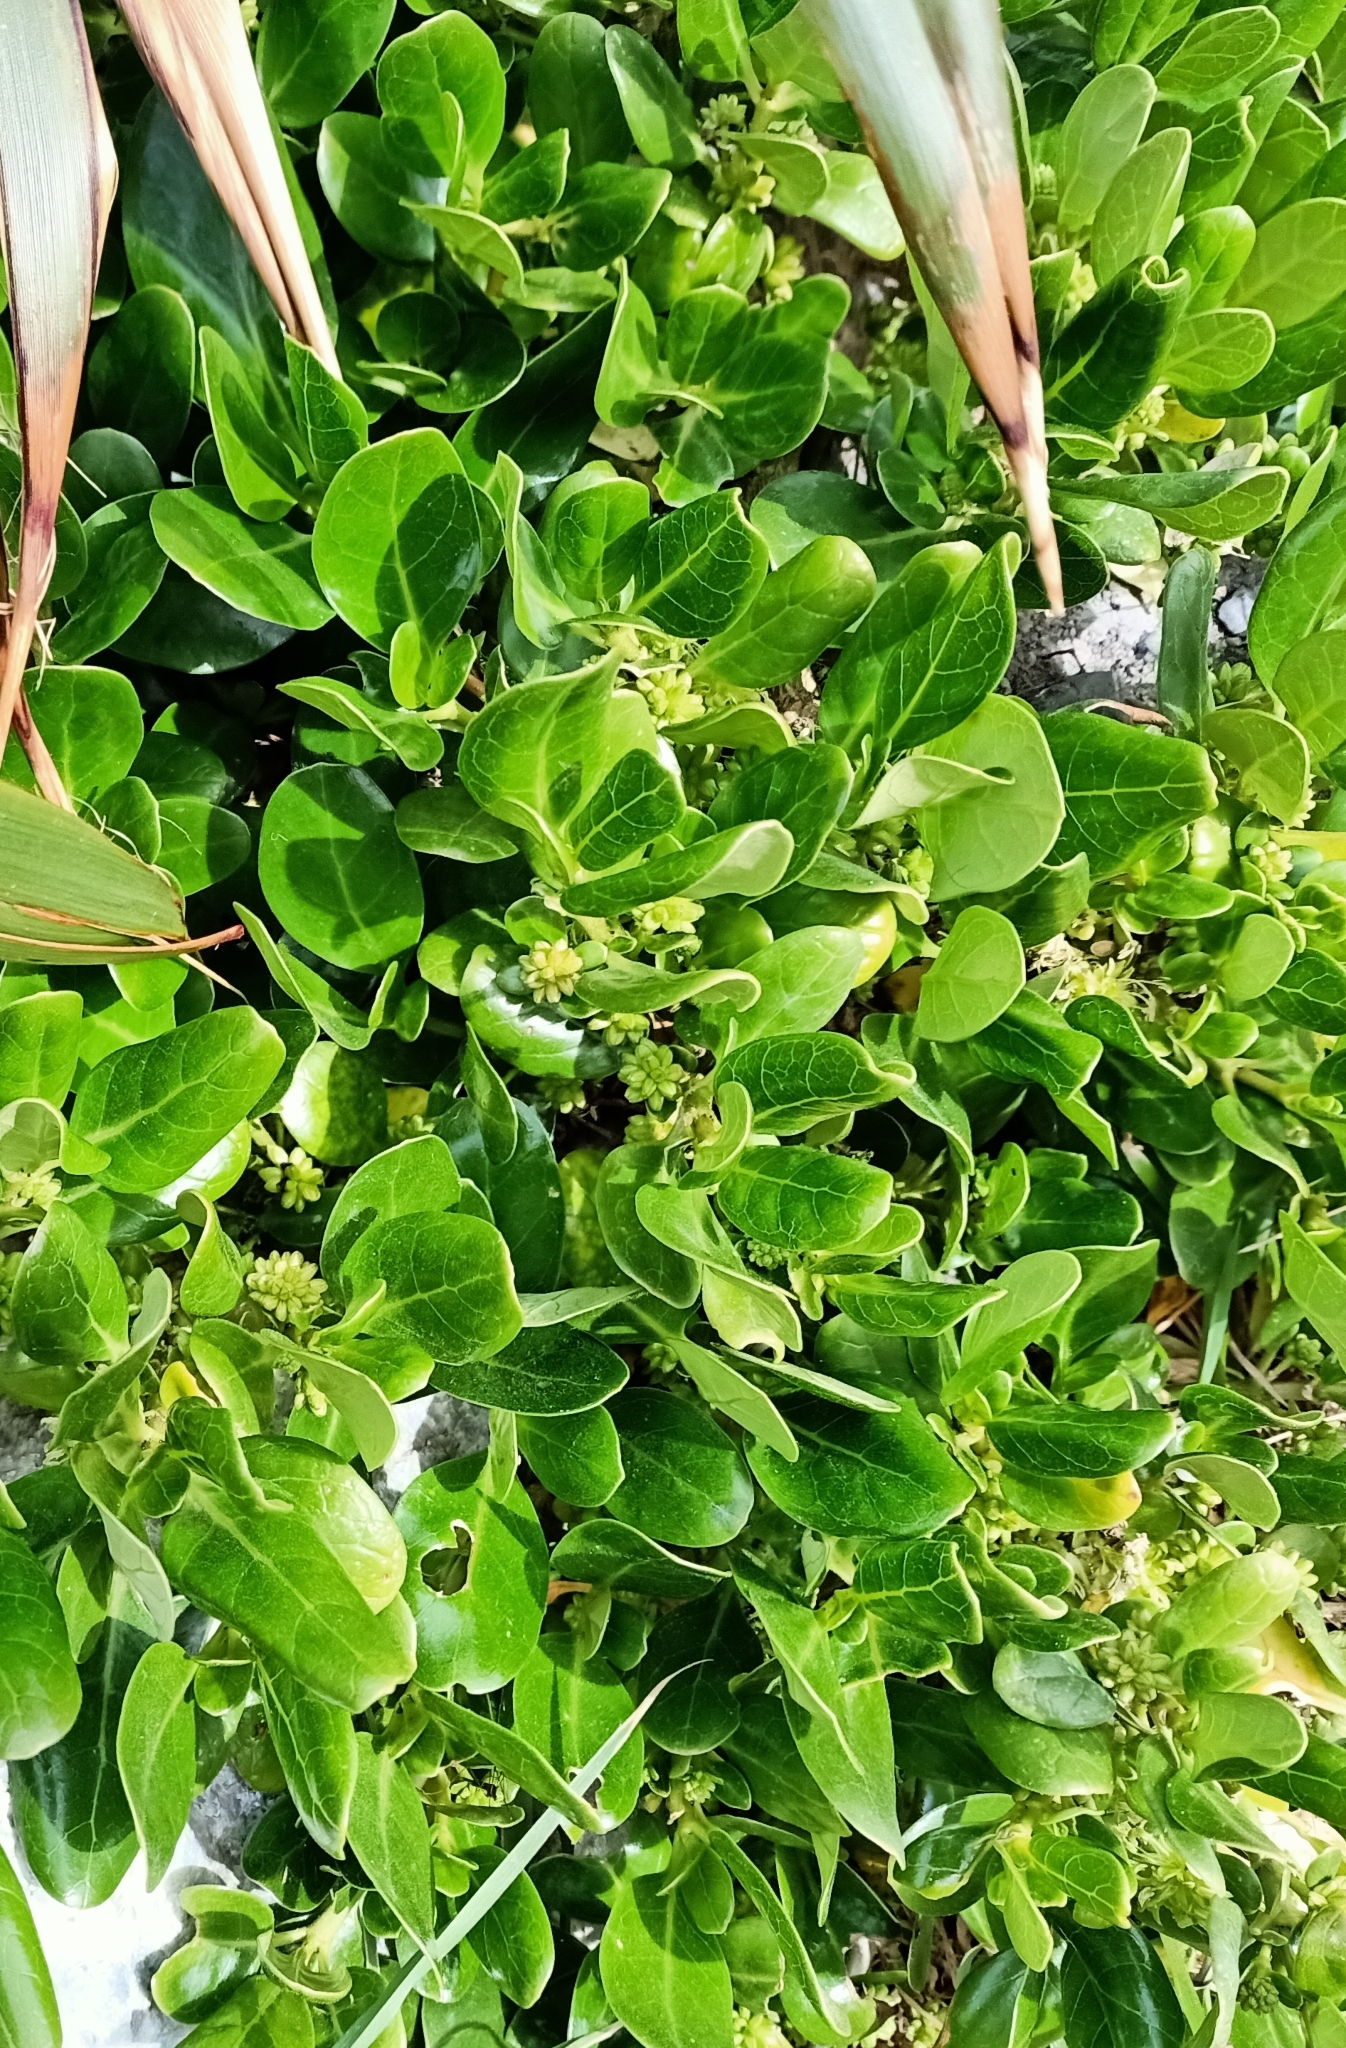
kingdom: Plantae
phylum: Tracheophyta
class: Magnoliopsida
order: Gentianales
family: Rubiaceae
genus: Coprosma
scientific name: Coprosma repens
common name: Tree bedstraw
